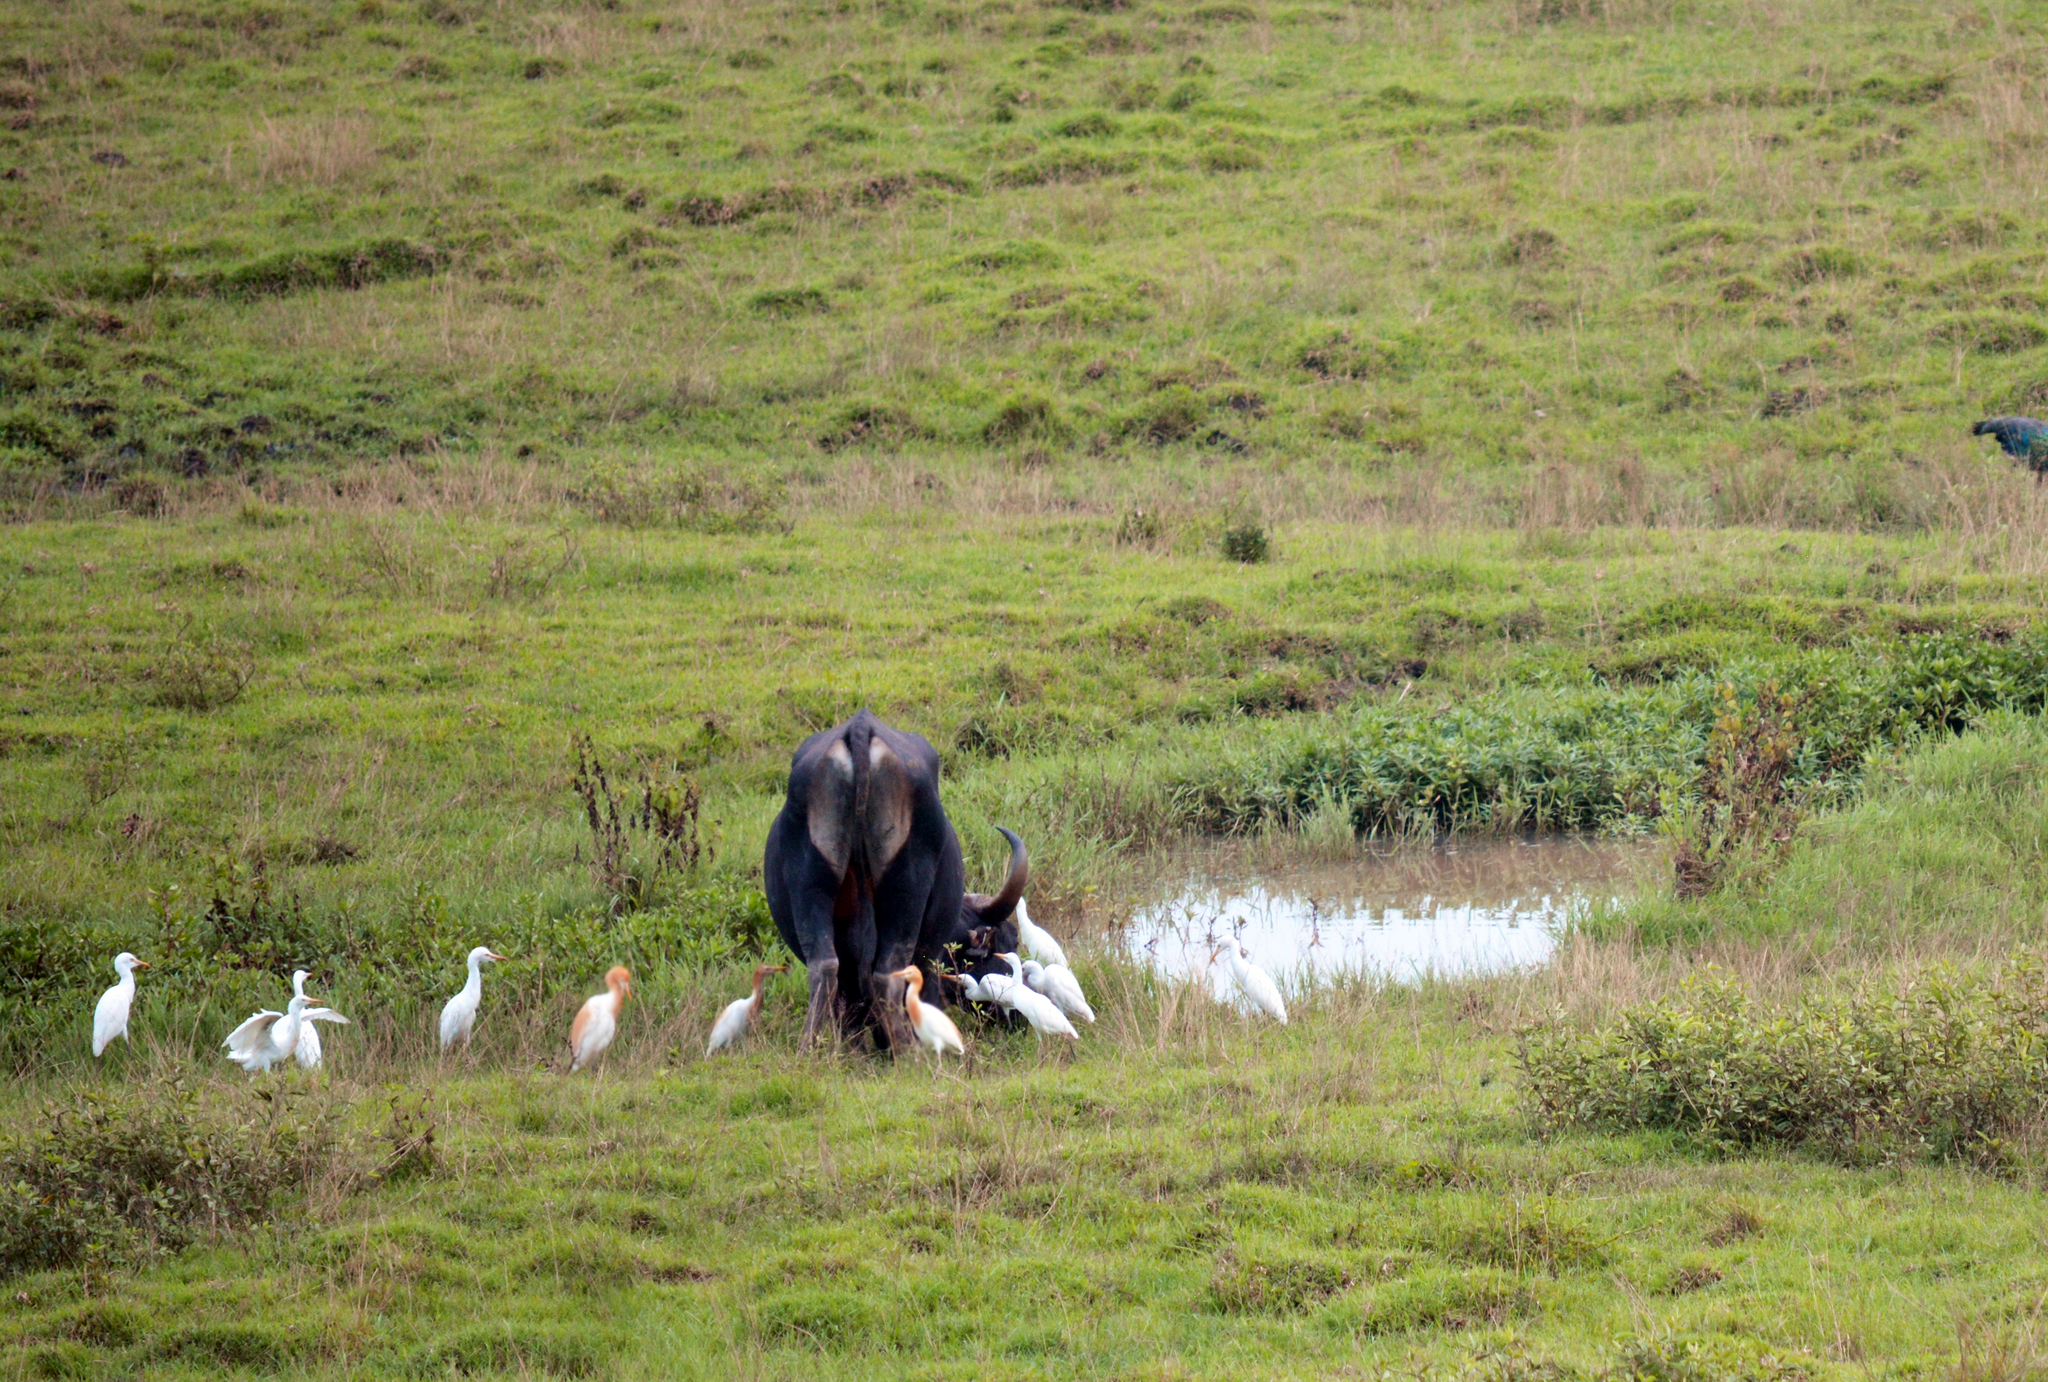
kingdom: Animalia
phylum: Chordata
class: Aves
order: Pelecaniformes
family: Ardeidae
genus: Bubulcus
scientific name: Bubulcus coromandus
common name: Eastern cattle egret
